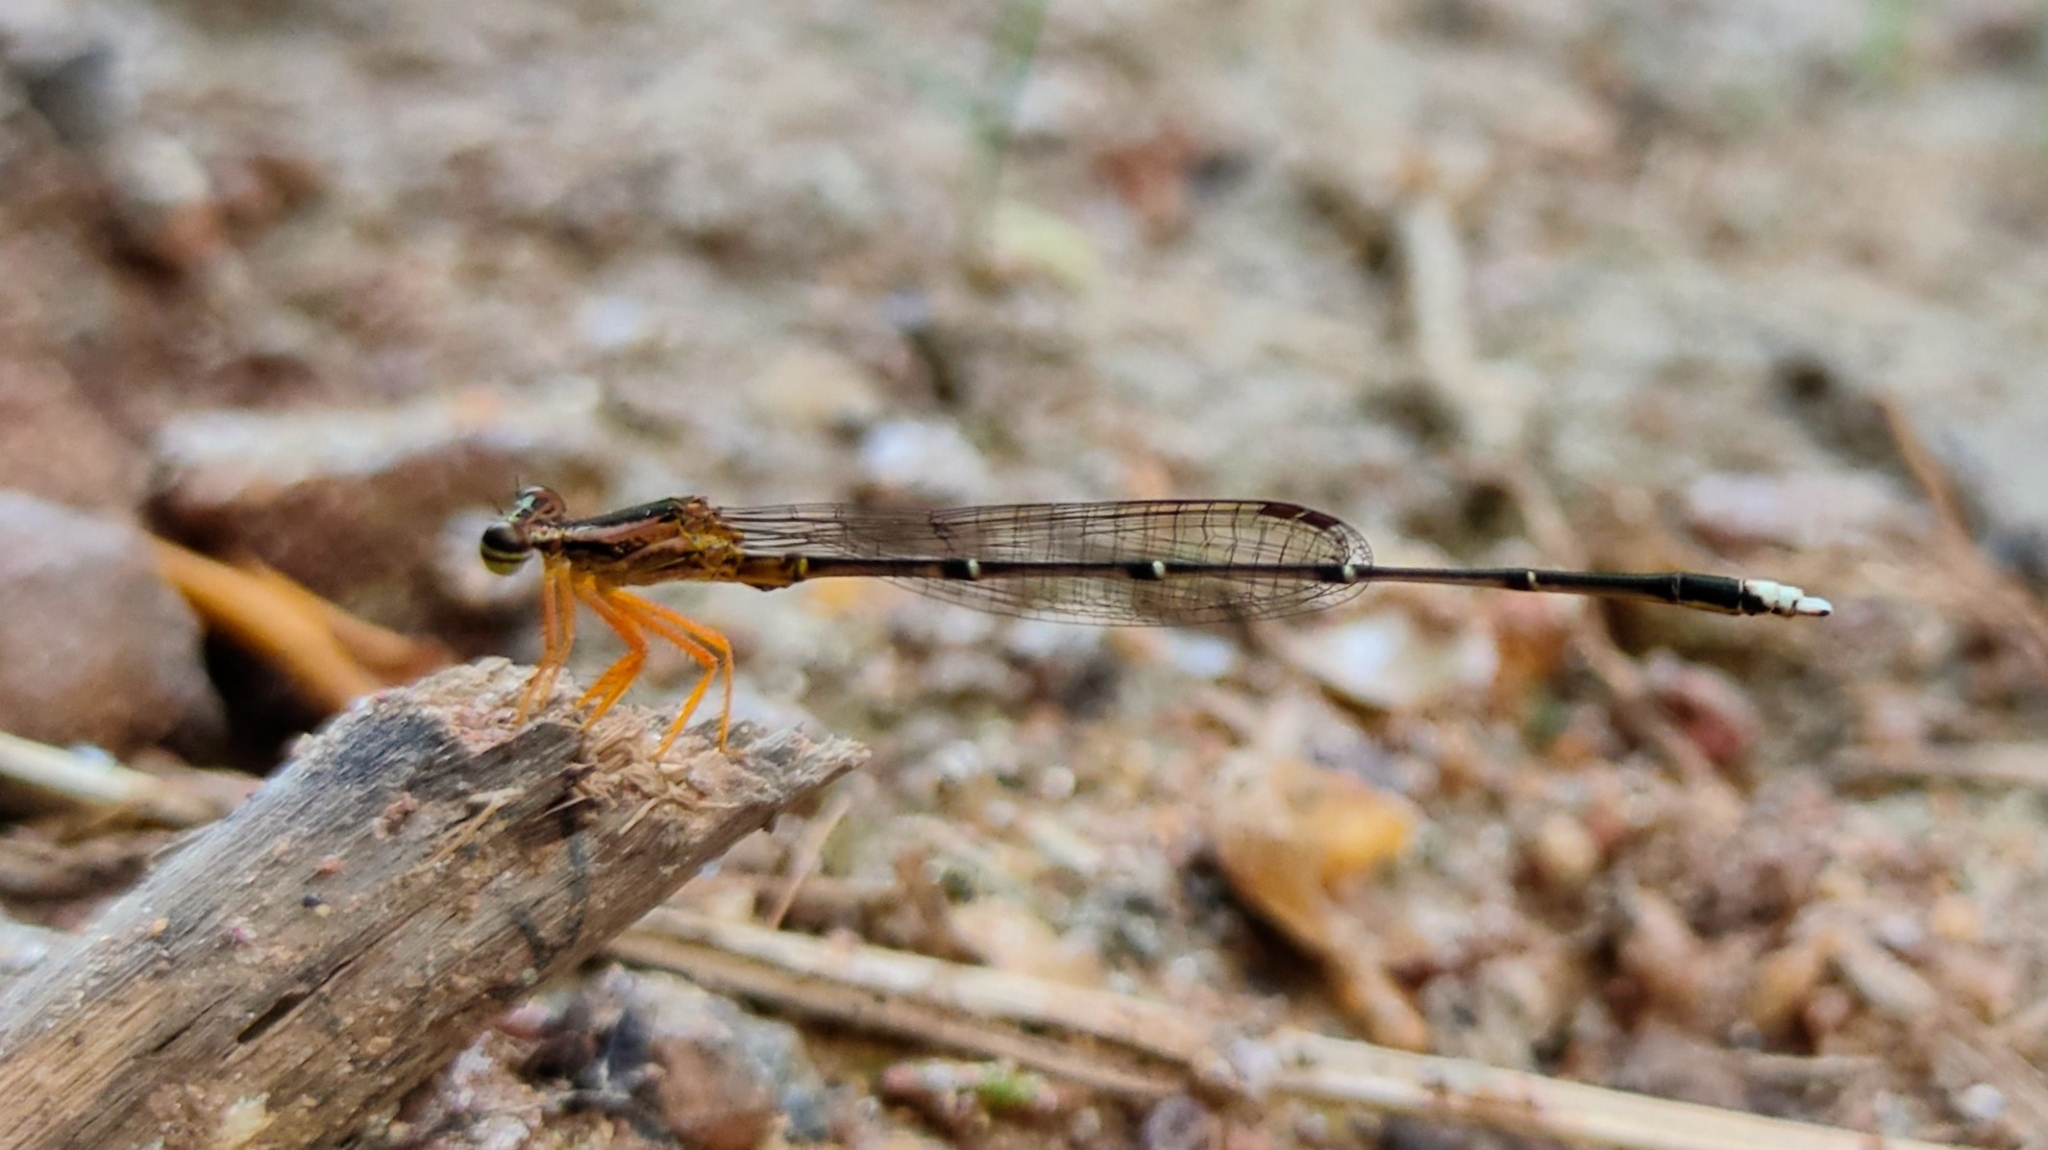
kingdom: Animalia
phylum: Arthropoda
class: Insecta
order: Odonata
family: Platycnemididae
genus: Copera
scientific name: Copera marginipes
